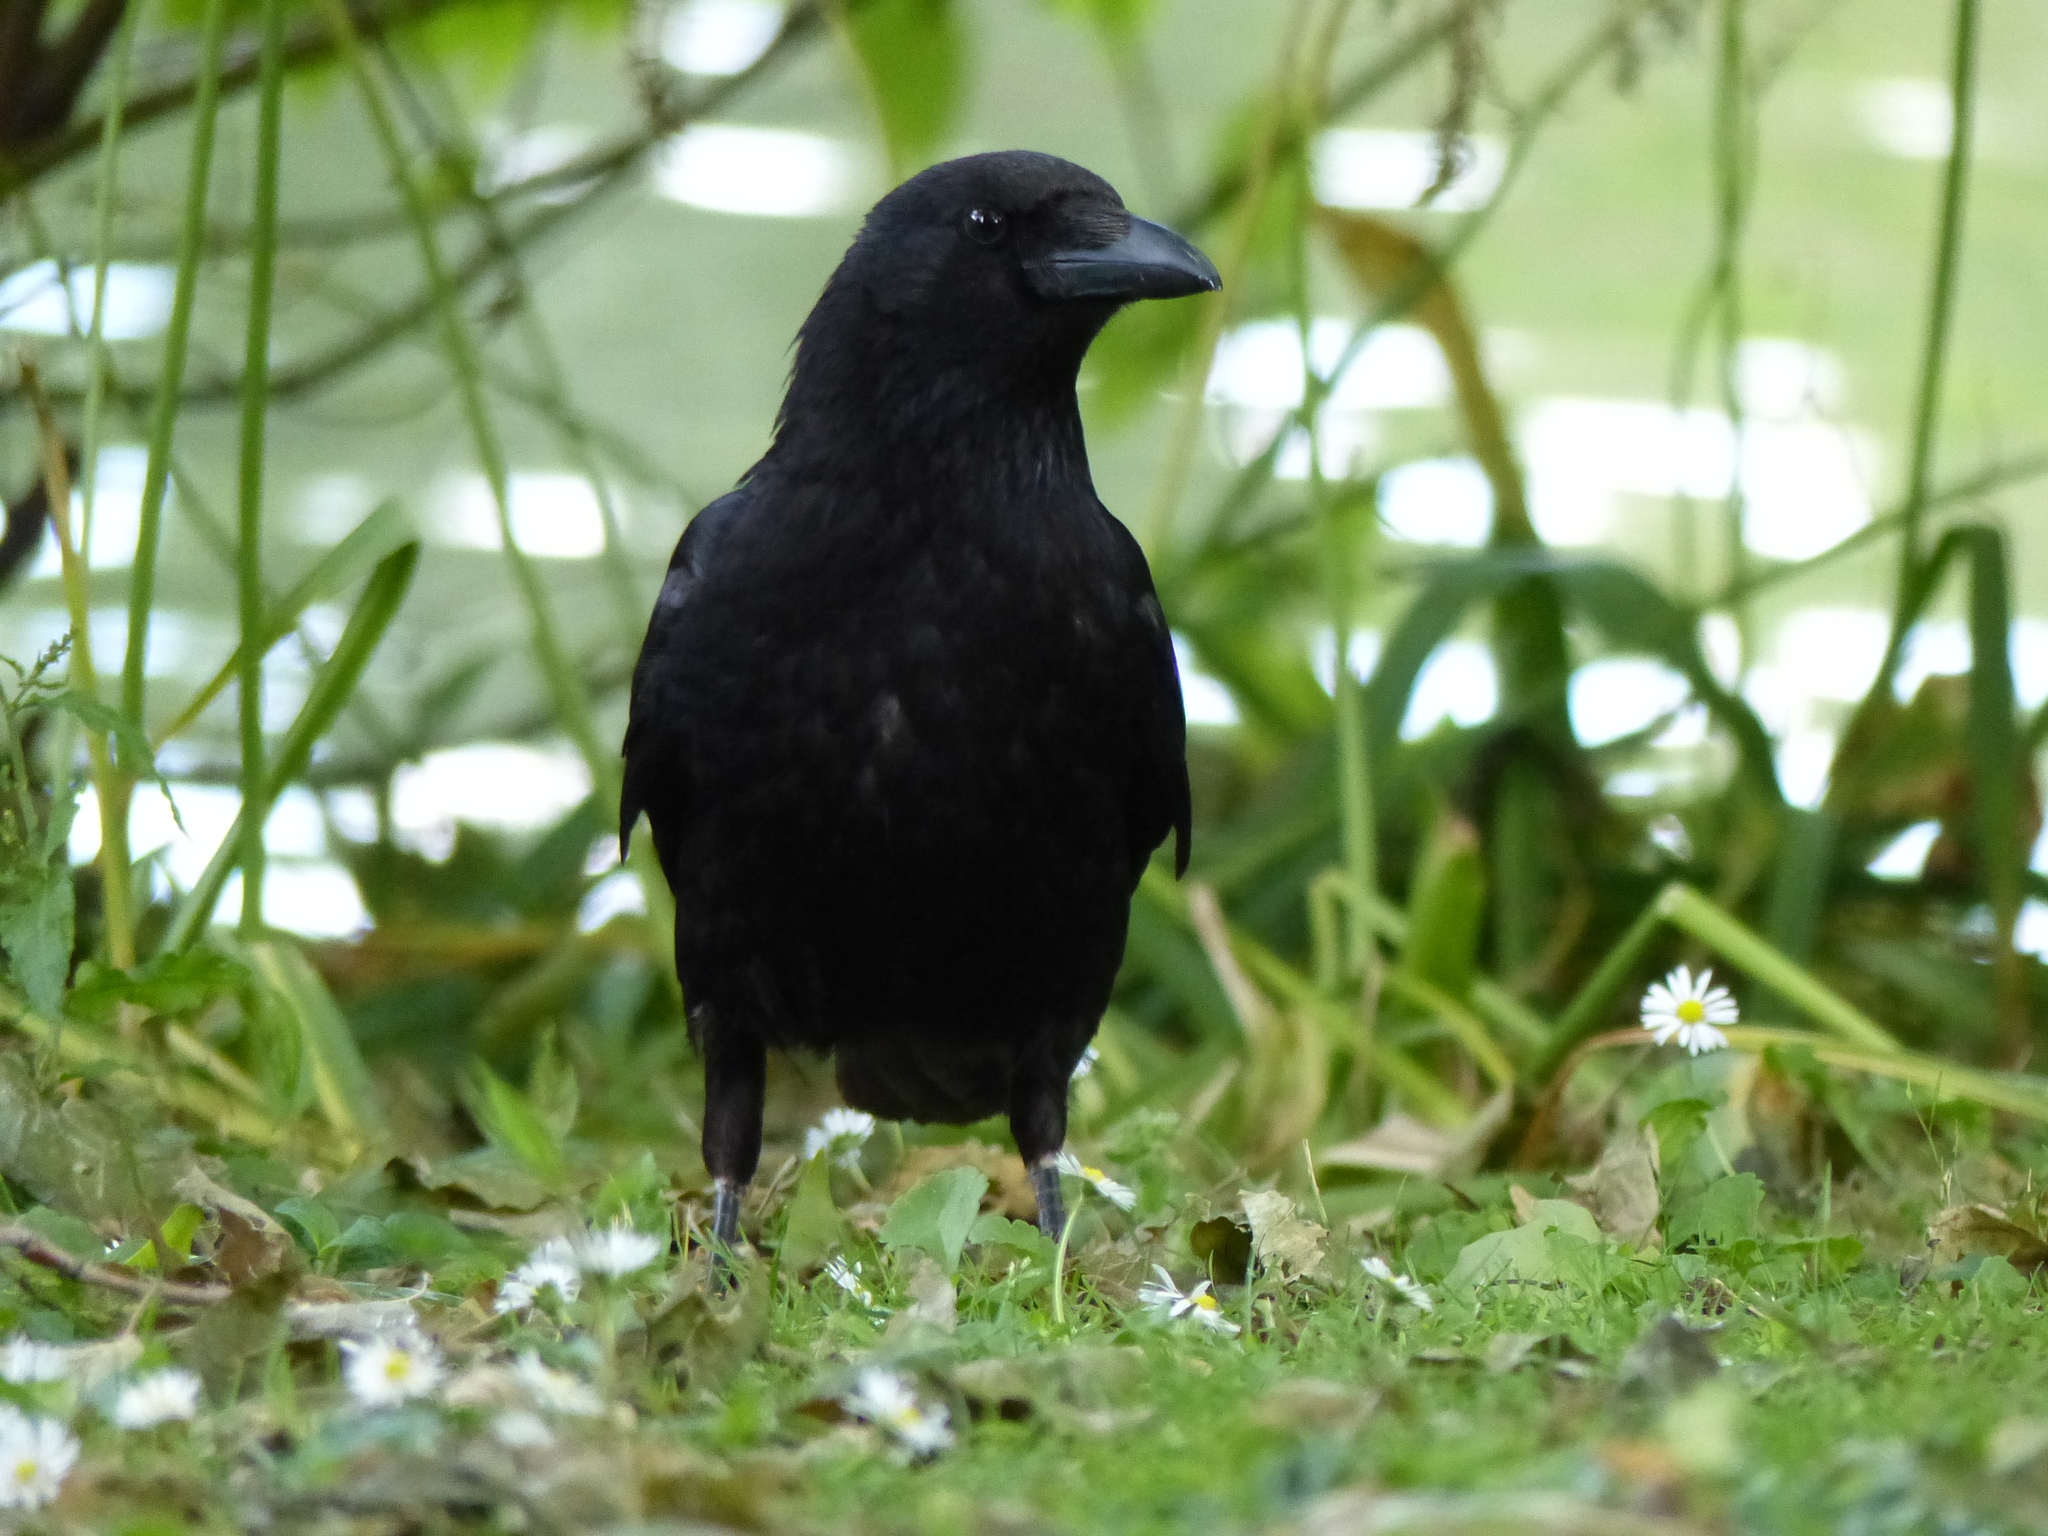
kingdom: Animalia
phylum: Chordata
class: Aves
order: Passeriformes
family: Corvidae
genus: Corvus
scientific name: Corvus corone
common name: Carrion crow
